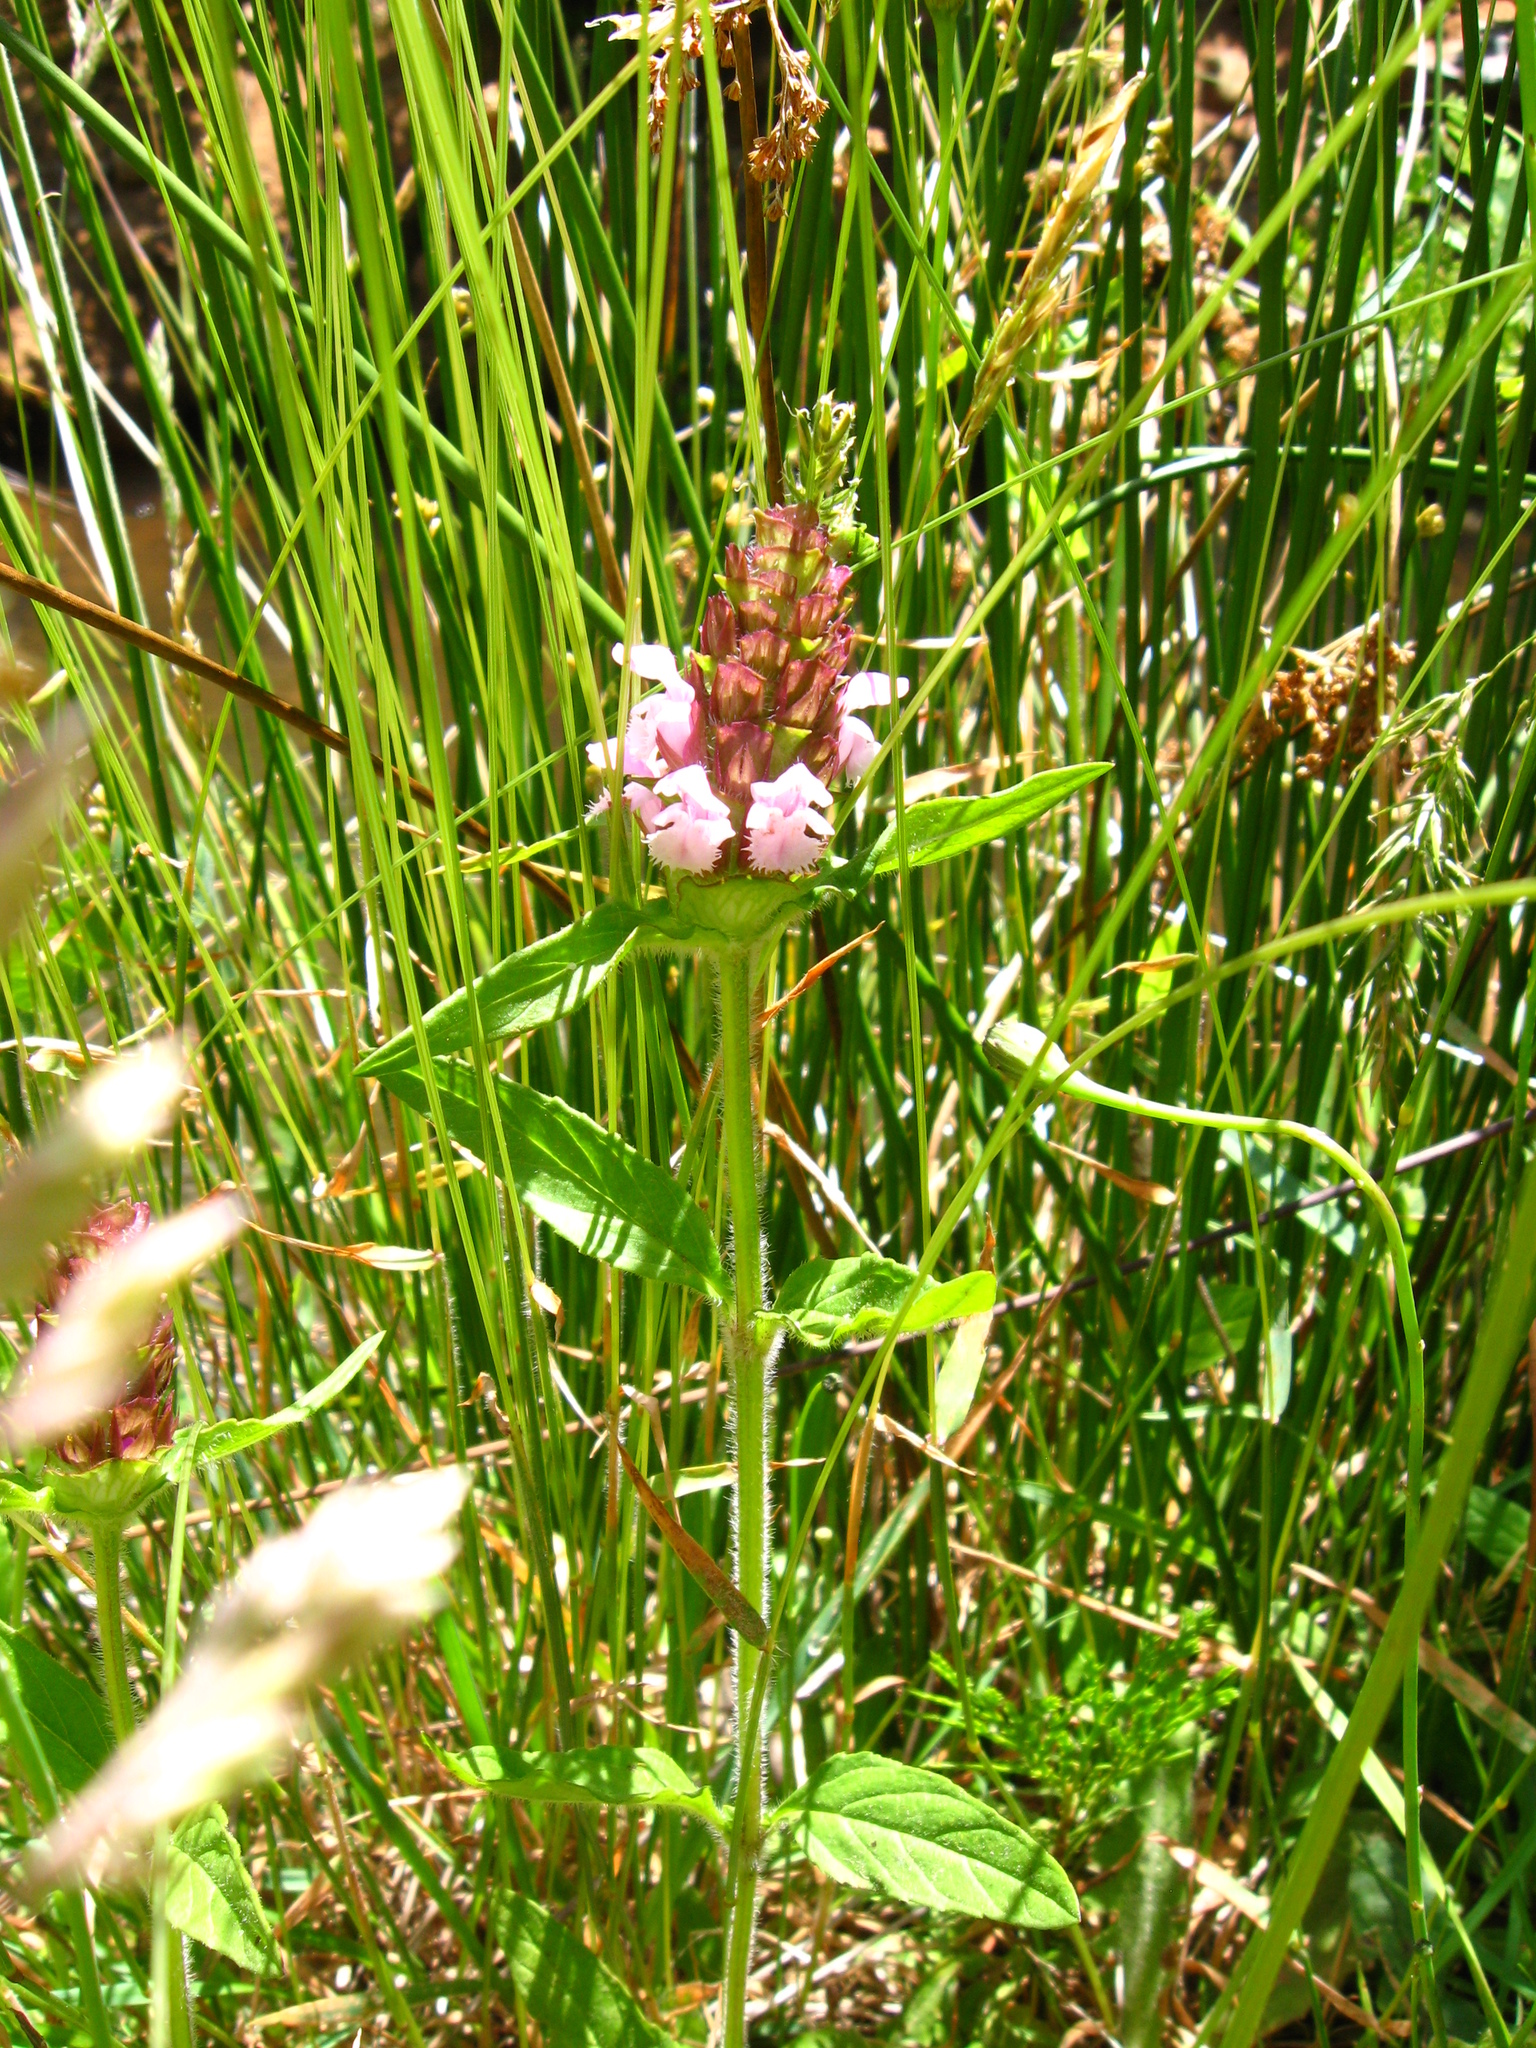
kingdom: Plantae
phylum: Tracheophyta
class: Magnoliopsida
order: Lamiales
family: Lamiaceae
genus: Prunella
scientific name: Prunella vulgaris
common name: Heal-all
